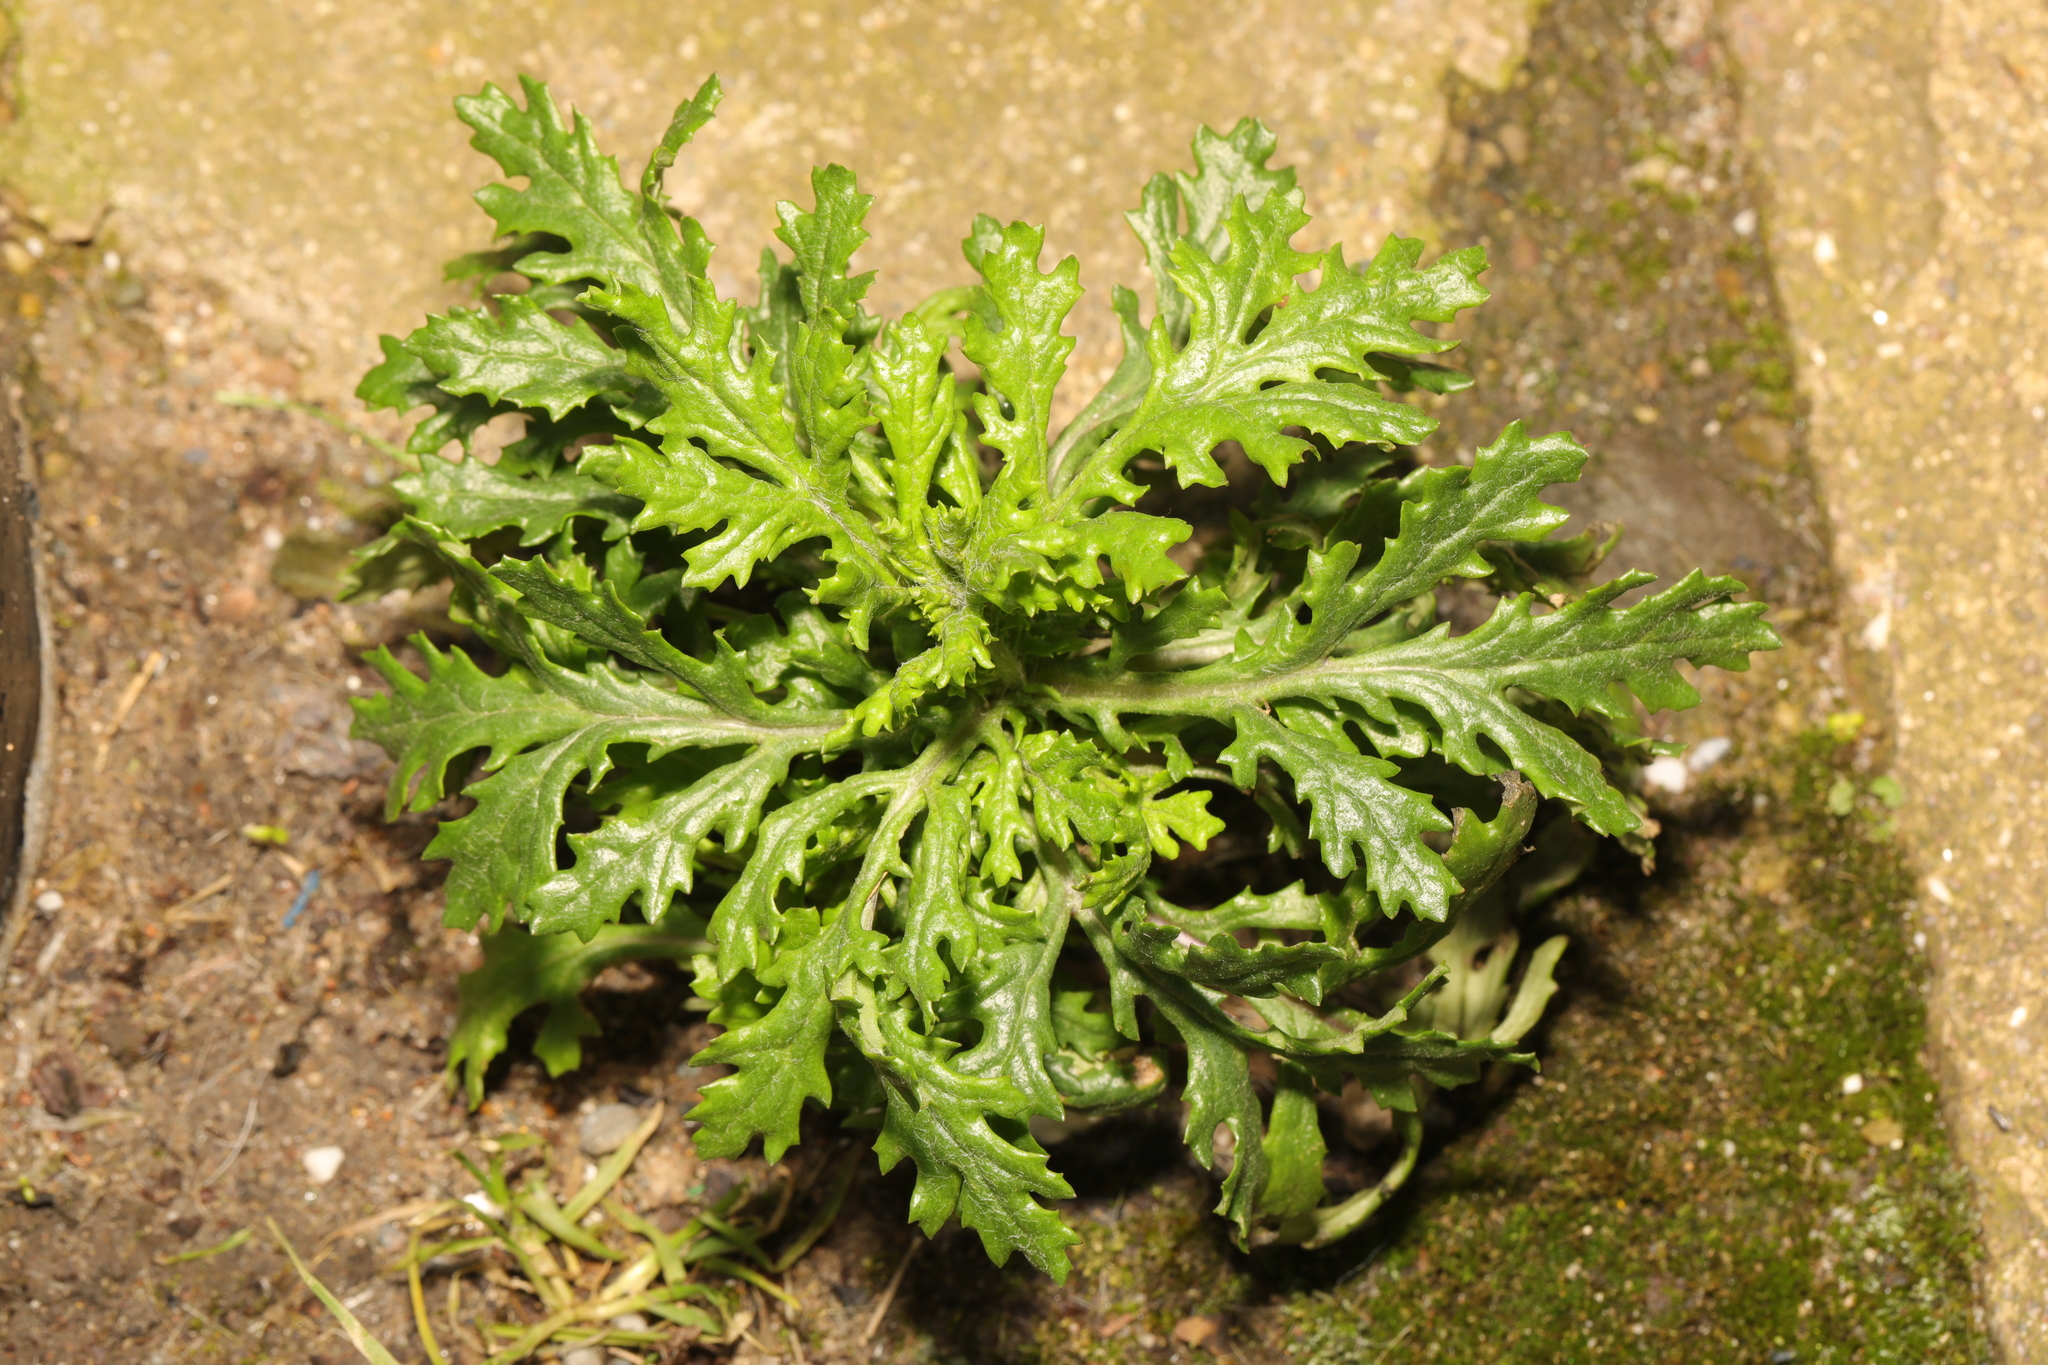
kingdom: Plantae
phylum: Tracheophyta
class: Magnoliopsida
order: Asterales
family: Asteraceae
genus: Senecio
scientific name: Senecio vulgaris
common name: Old-man-in-the-spring
